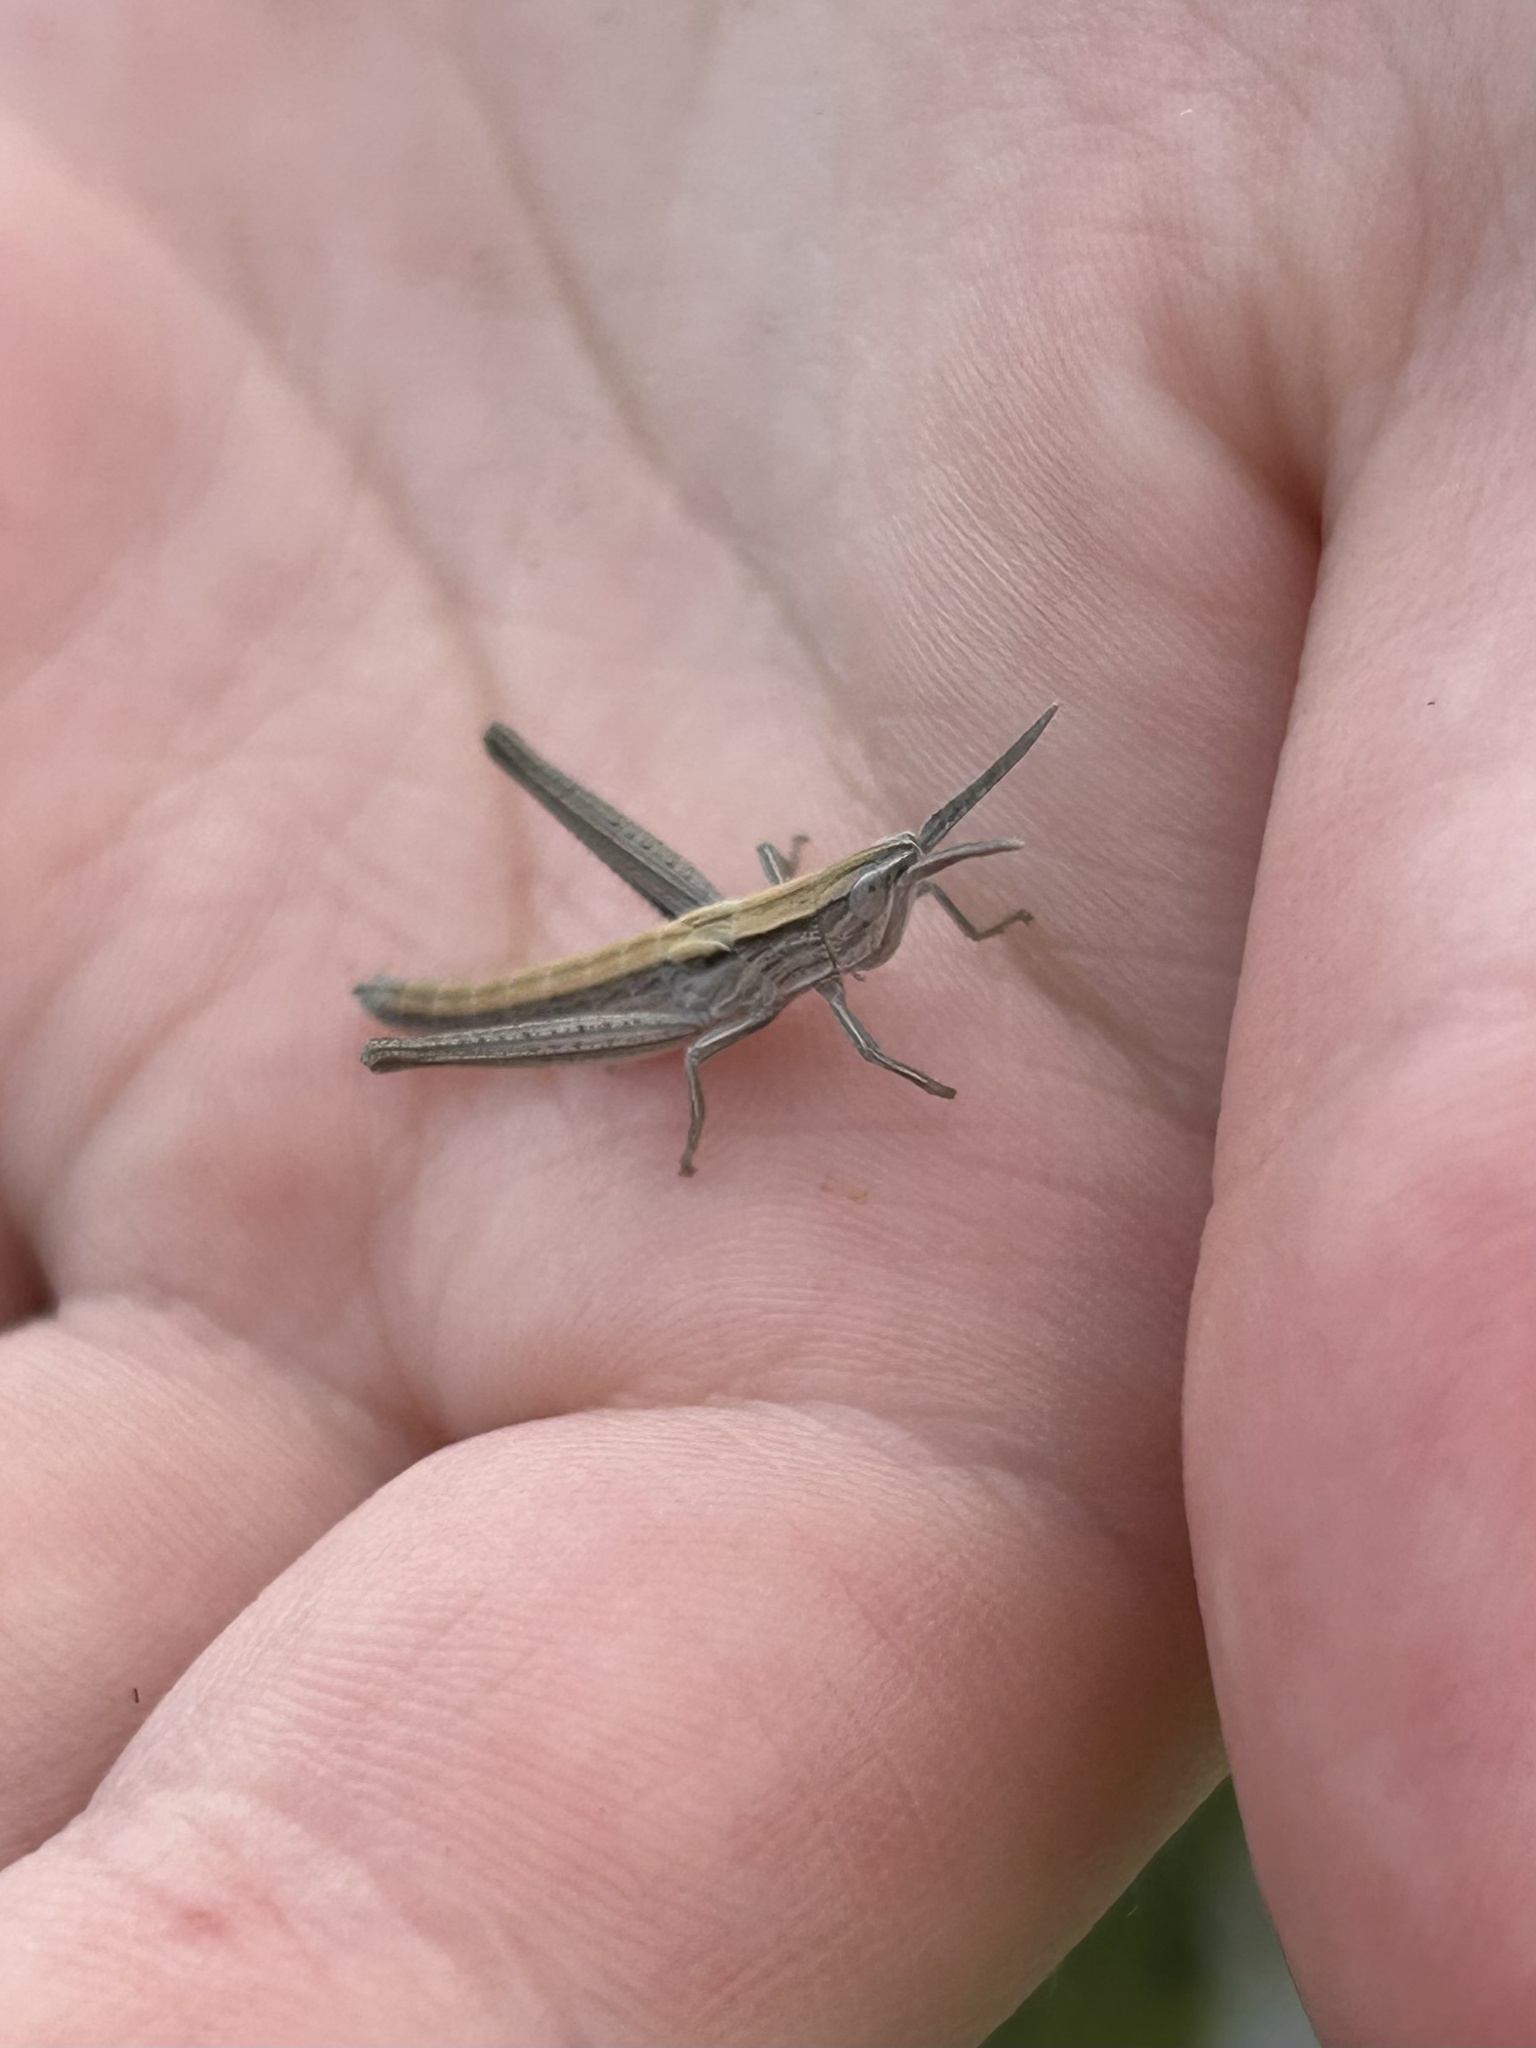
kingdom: Animalia
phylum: Arthropoda
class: Insecta
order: Orthoptera
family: Acrididae
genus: Pseudopomala
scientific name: Pseudopomala brachyptera
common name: Bunchgrass grasshopper
